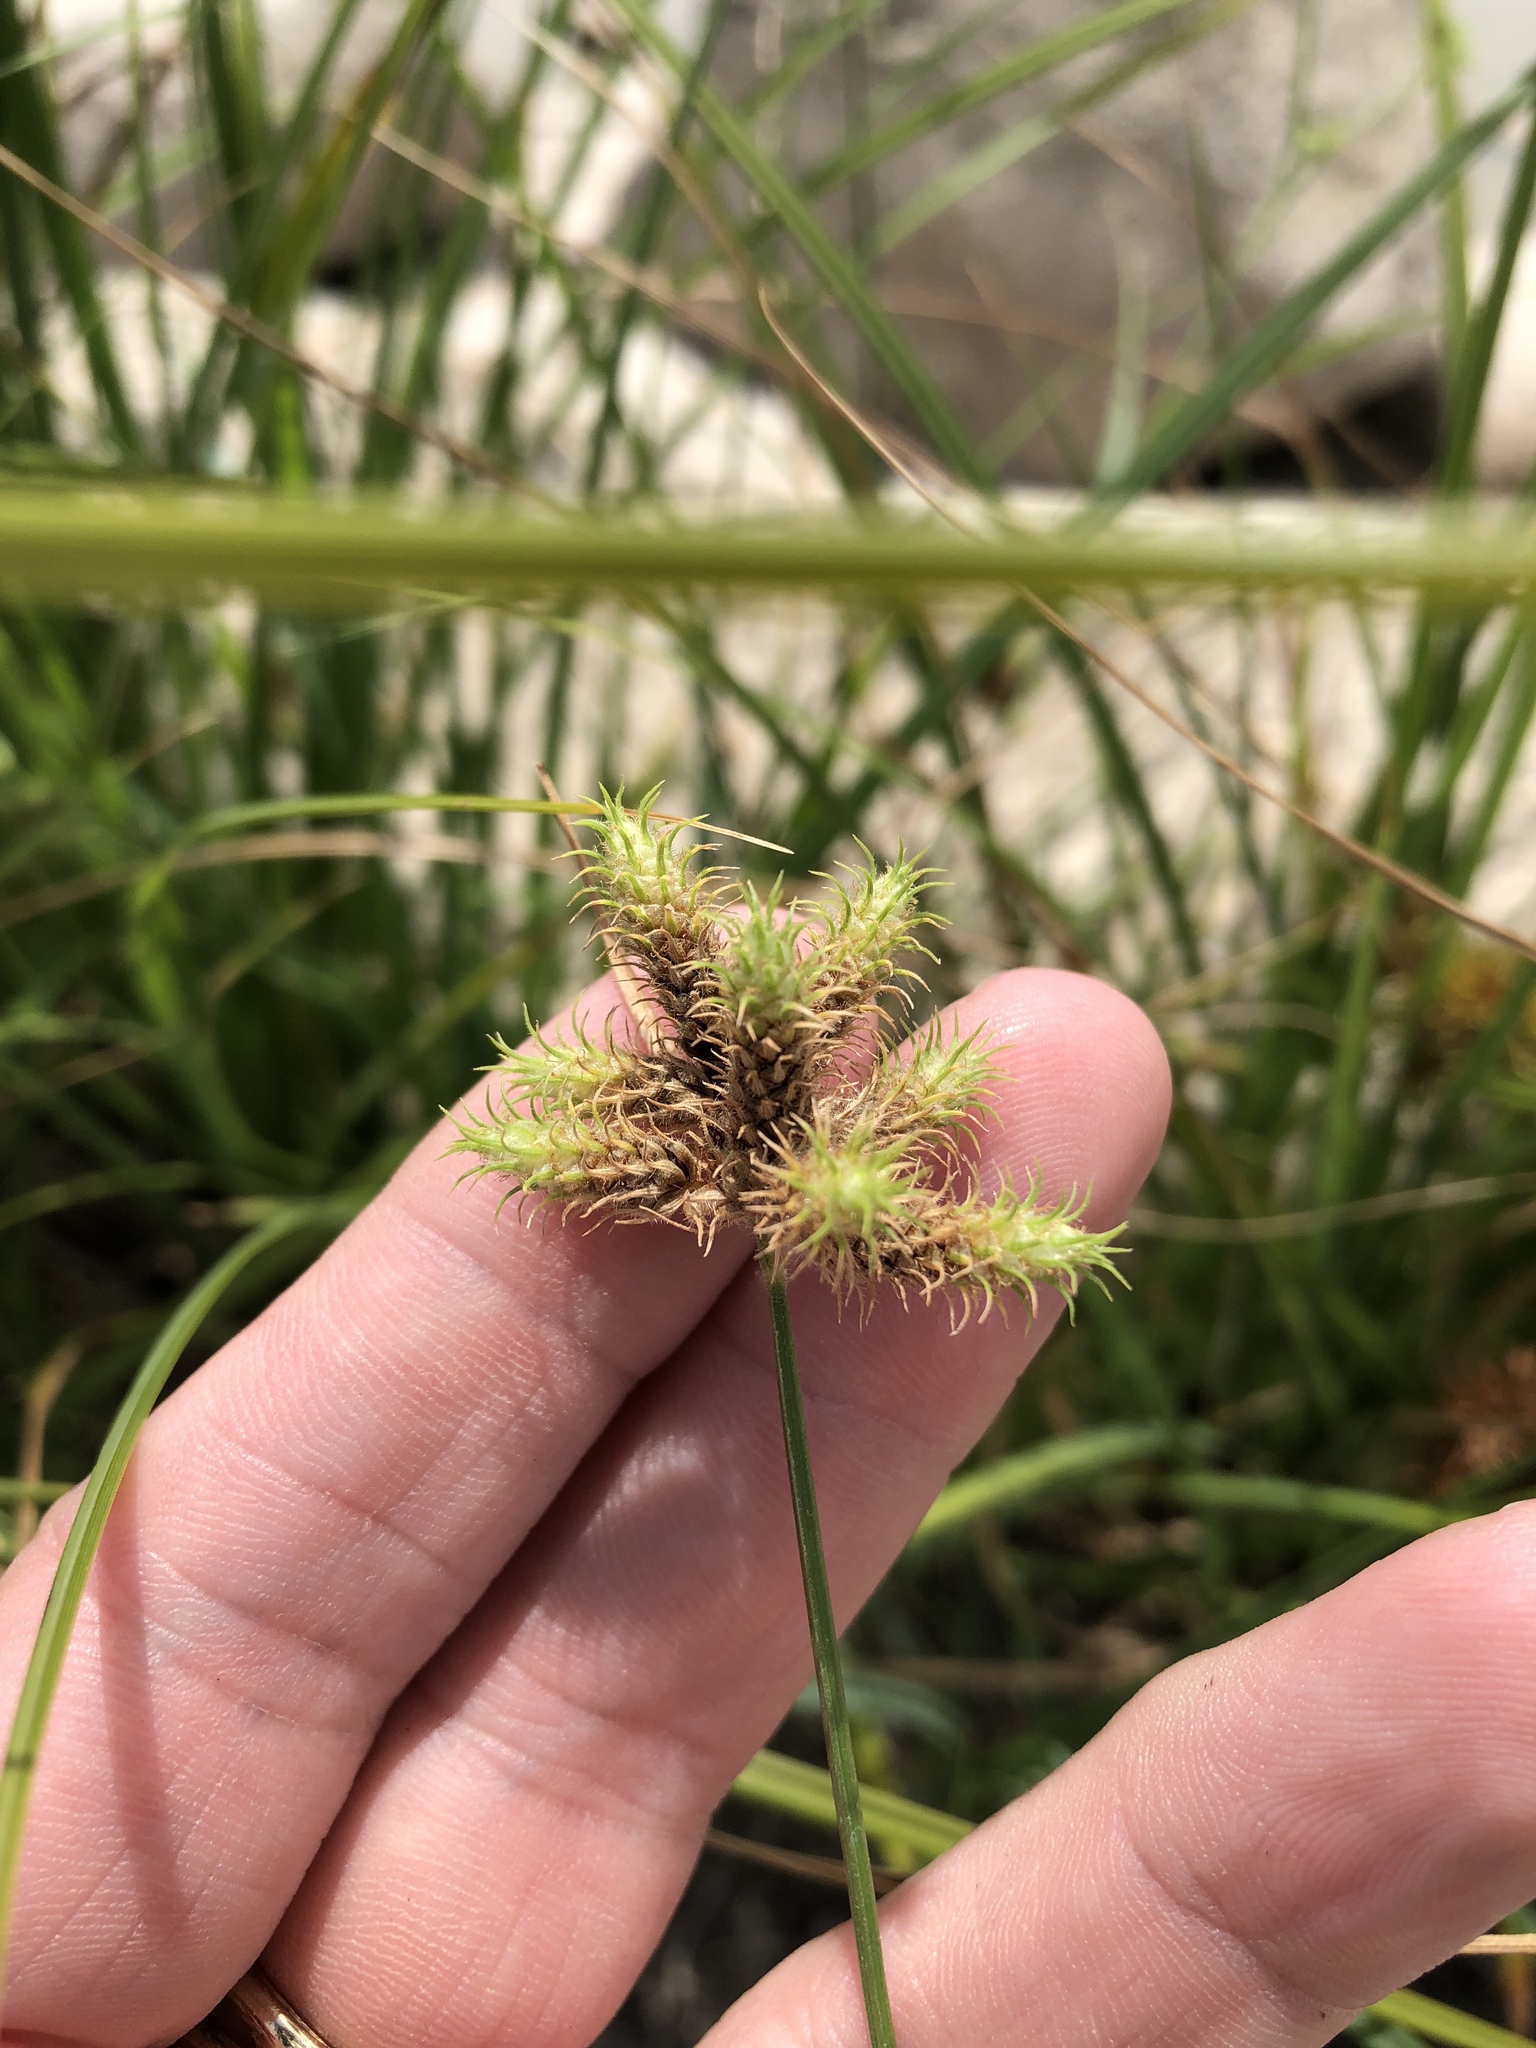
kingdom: Plantae
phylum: Tracheophyta
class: Liliopsida
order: Poales
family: Cyperaceae
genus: Fuirena
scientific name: Fuirena simplex
